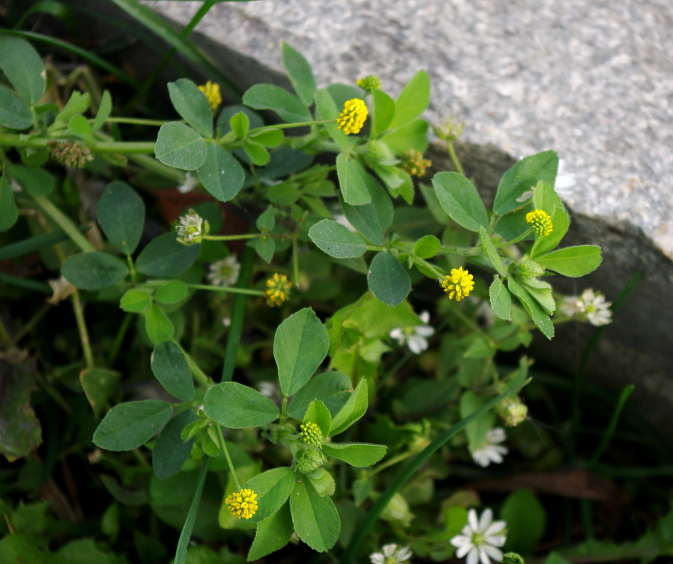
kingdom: Plantae
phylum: Tracheophyta
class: Magnoliopsida
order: Fabales
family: Fabaceae
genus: Medicago
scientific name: Medicago lupulina
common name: Black medick
